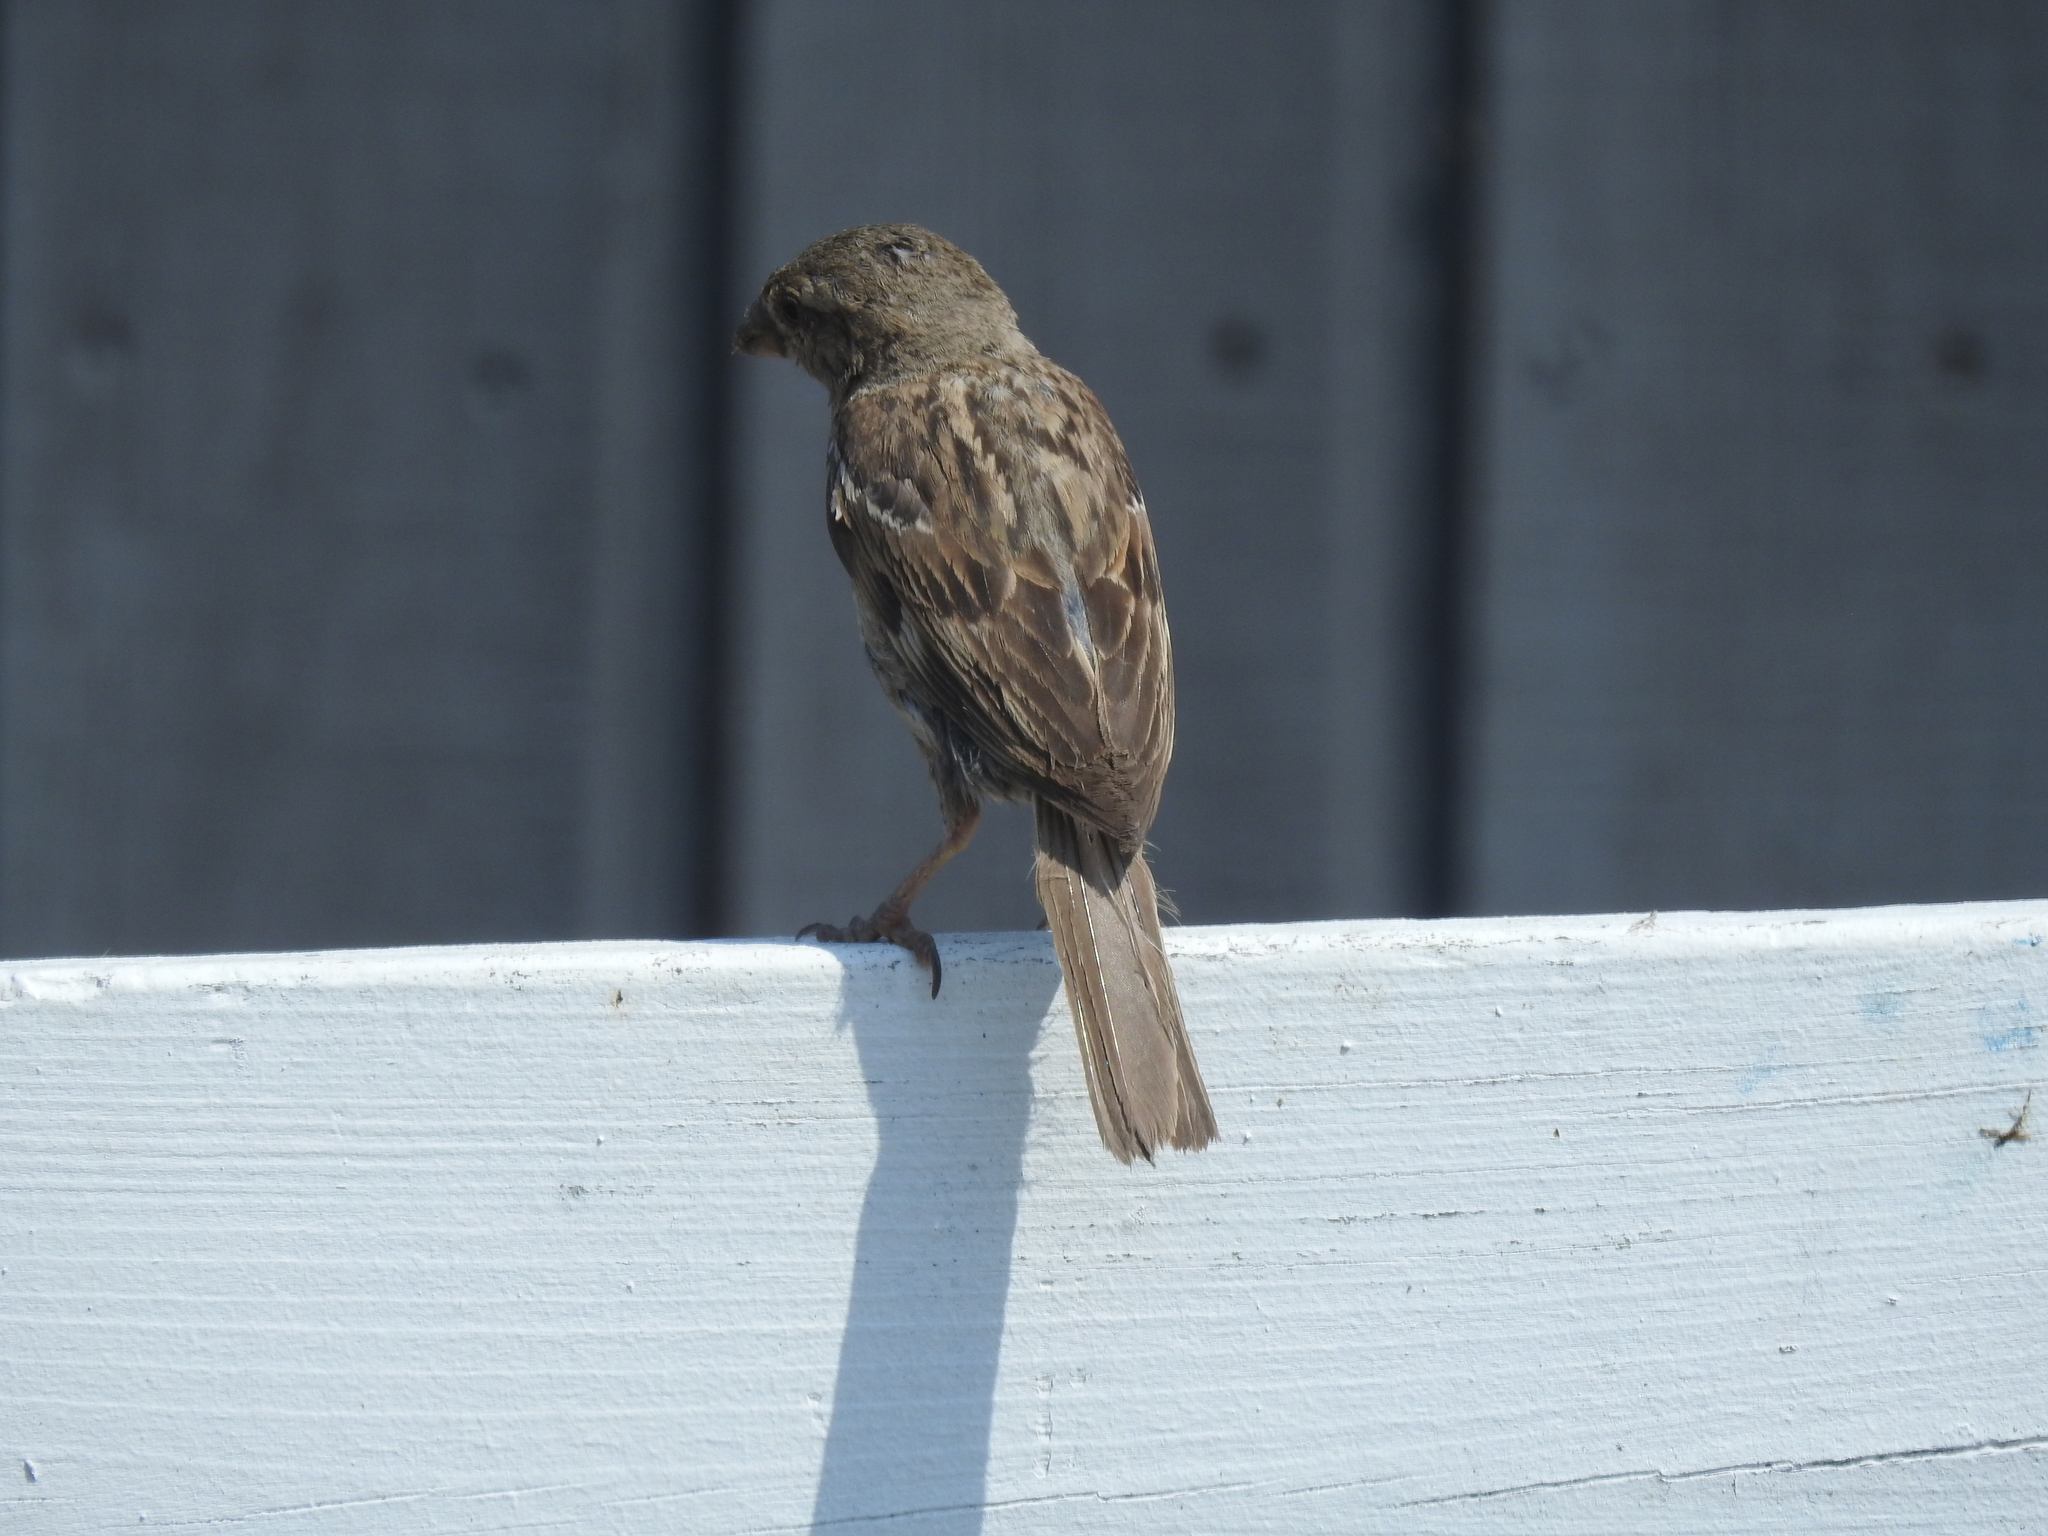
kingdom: Animalia
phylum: Chordata
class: Aves
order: Passeriformes
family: Passeridae
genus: Passer
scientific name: Passer domesticus
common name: House sparrow
